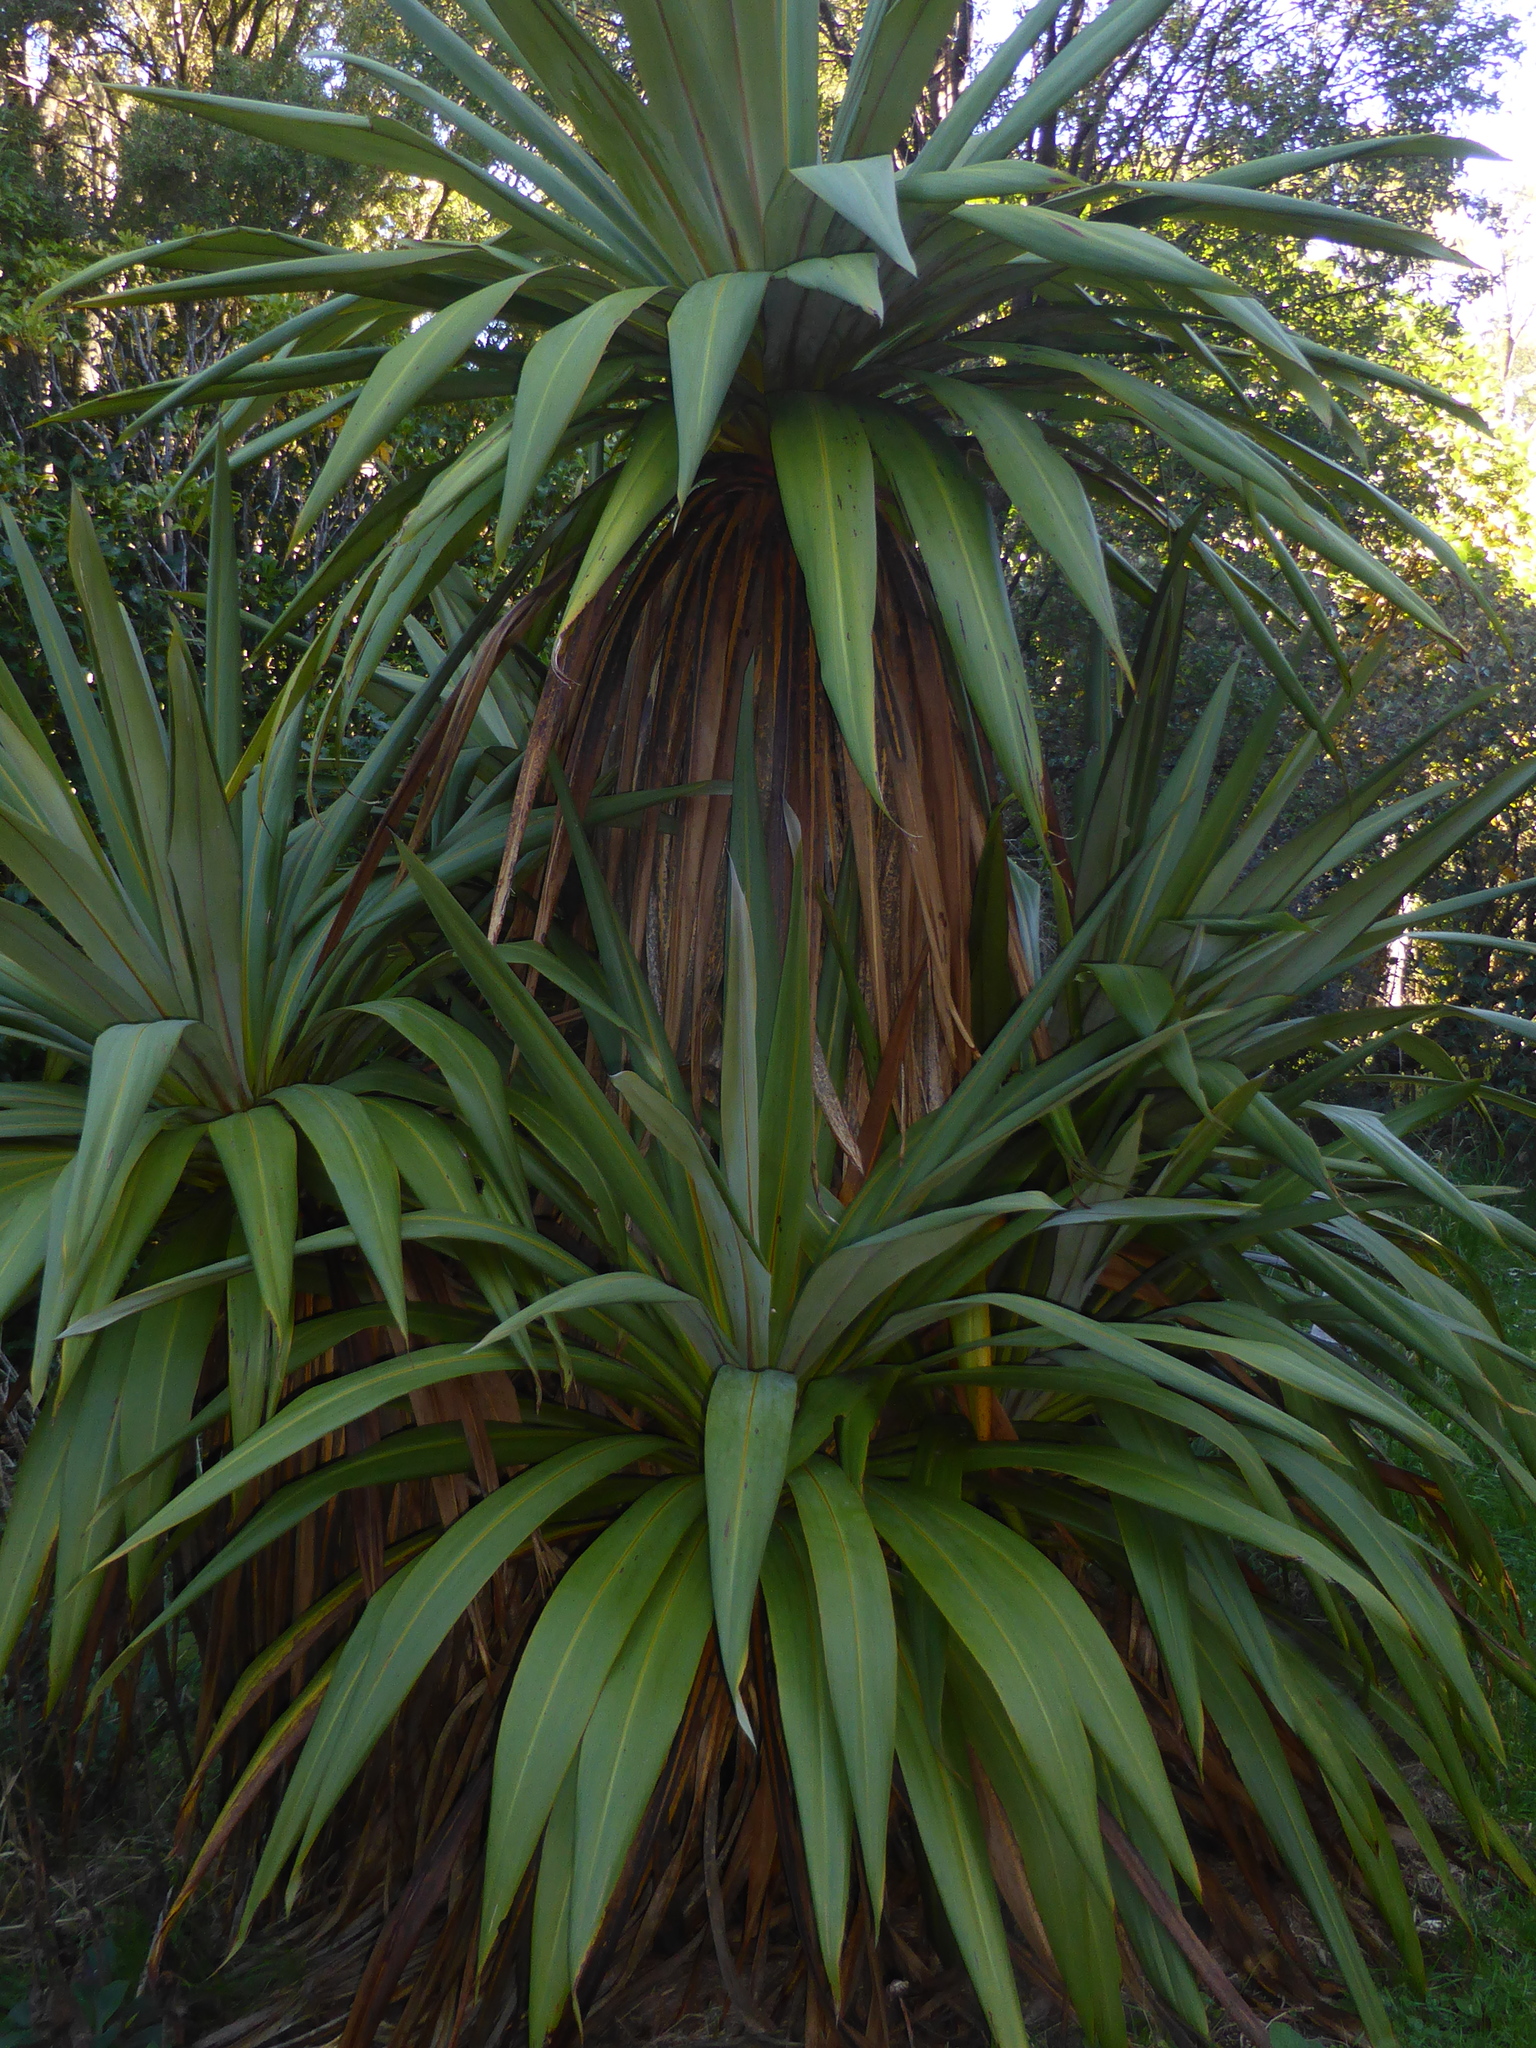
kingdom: Plantae
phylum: Tracheophyta
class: Liliopsida
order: Asparagales
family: Asparagaceae
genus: Cordyline
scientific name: Cordyline indivisa
